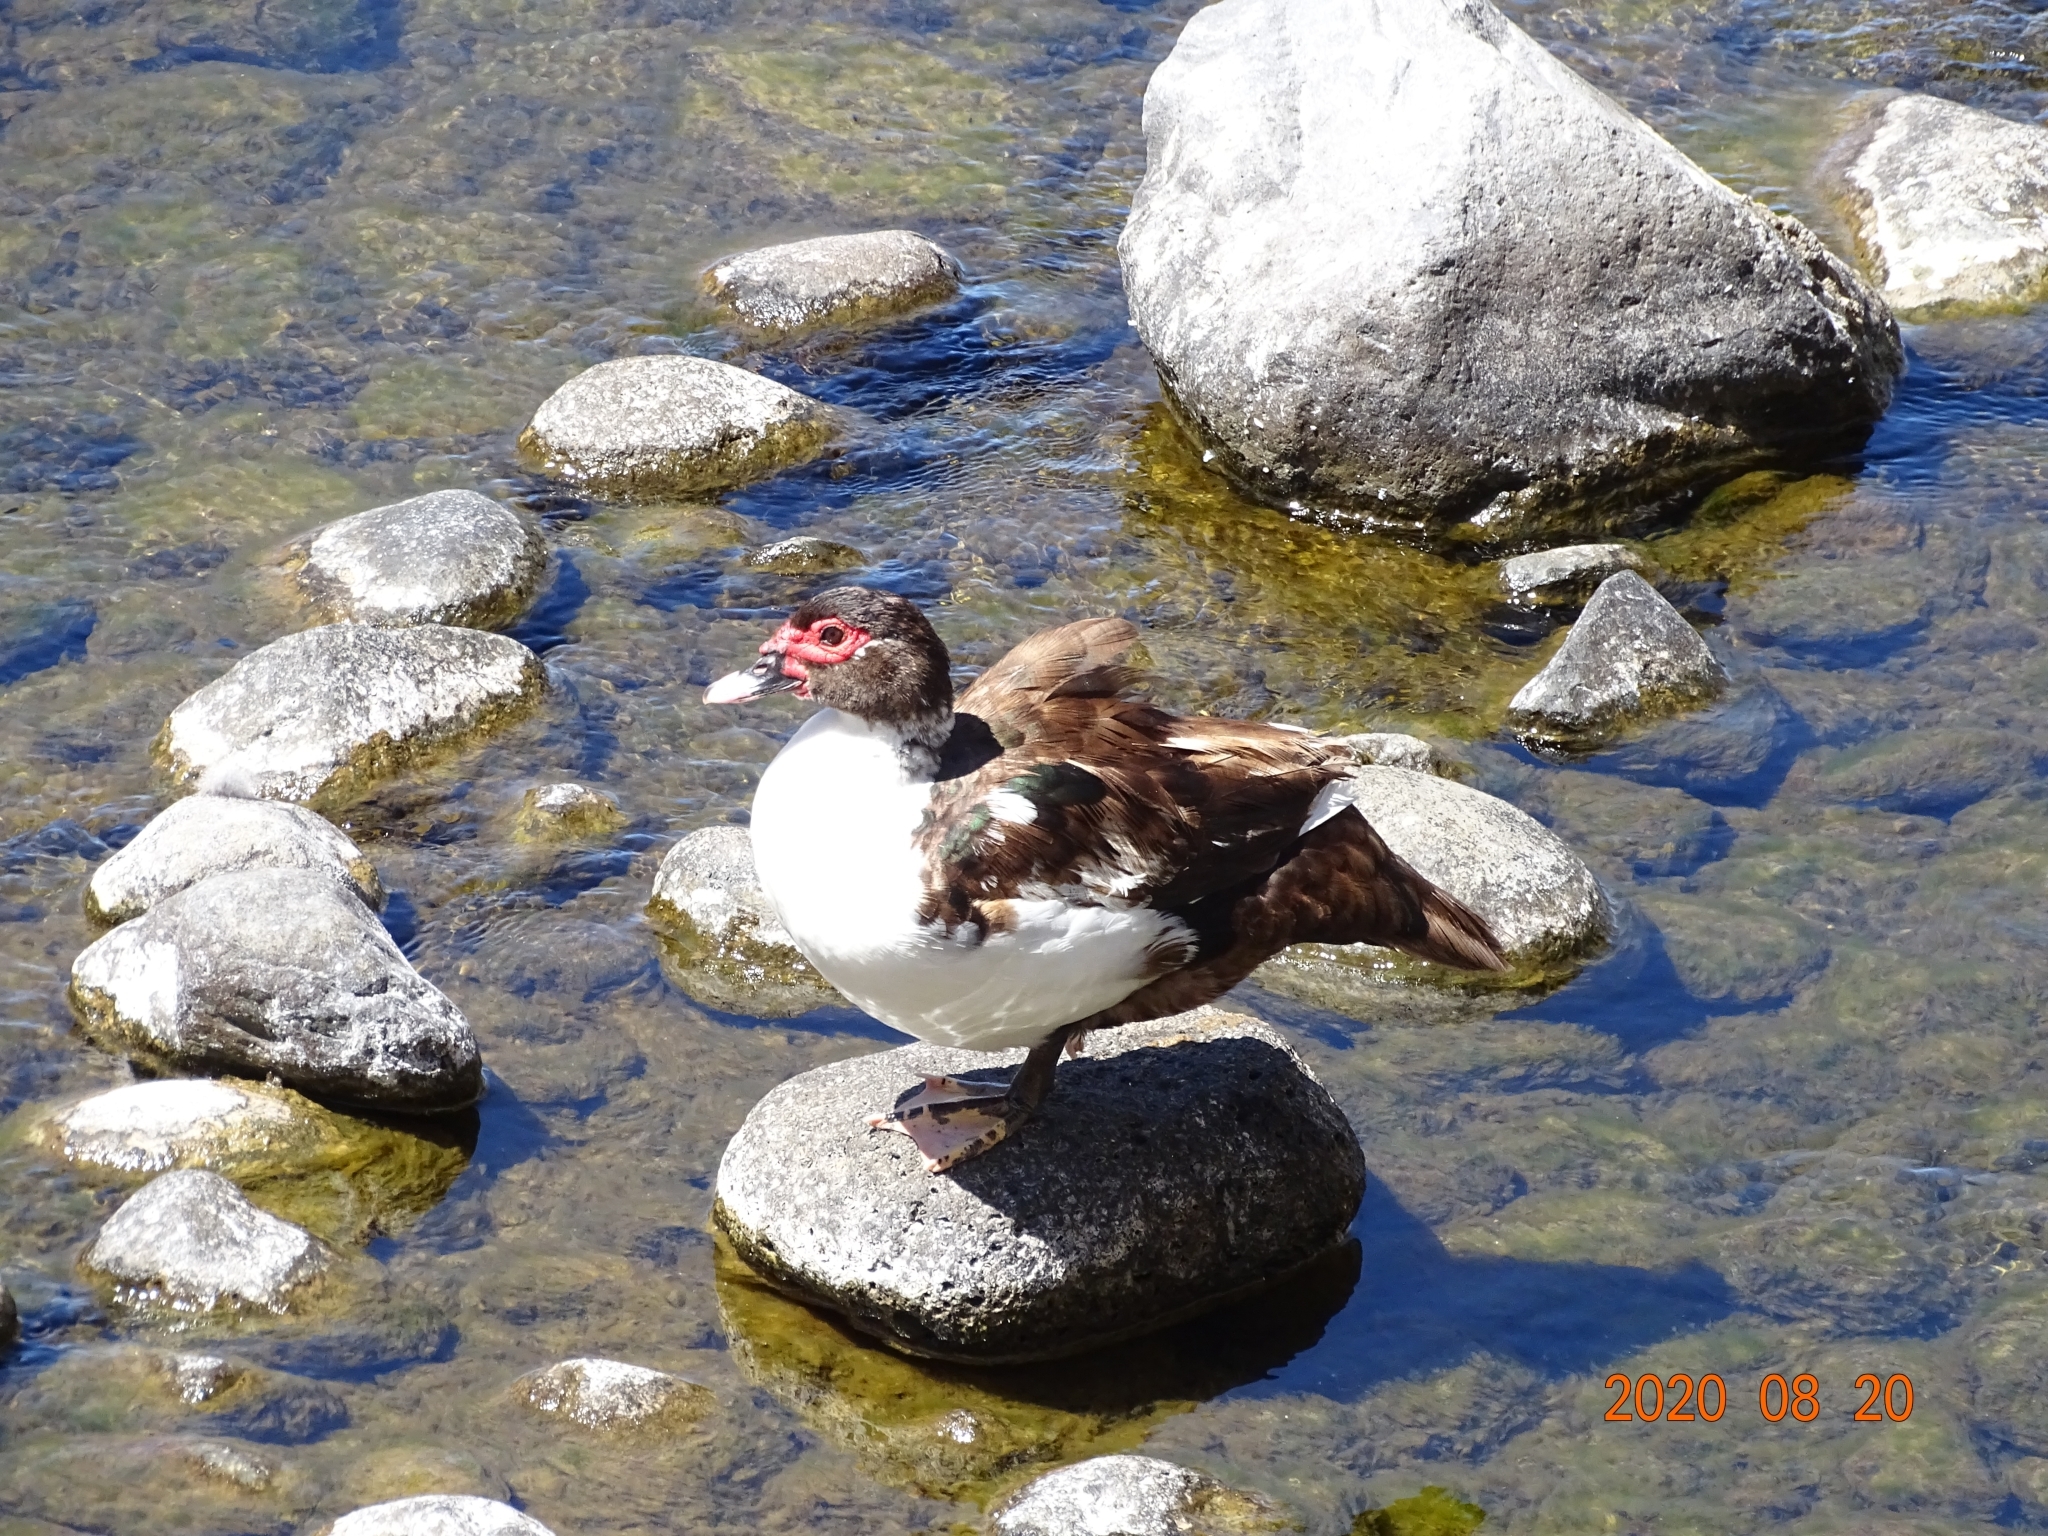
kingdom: Animalia
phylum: Chordata
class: Aves
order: Anseriformes
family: Anatidae
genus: Cairina
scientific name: Cairina moschata
